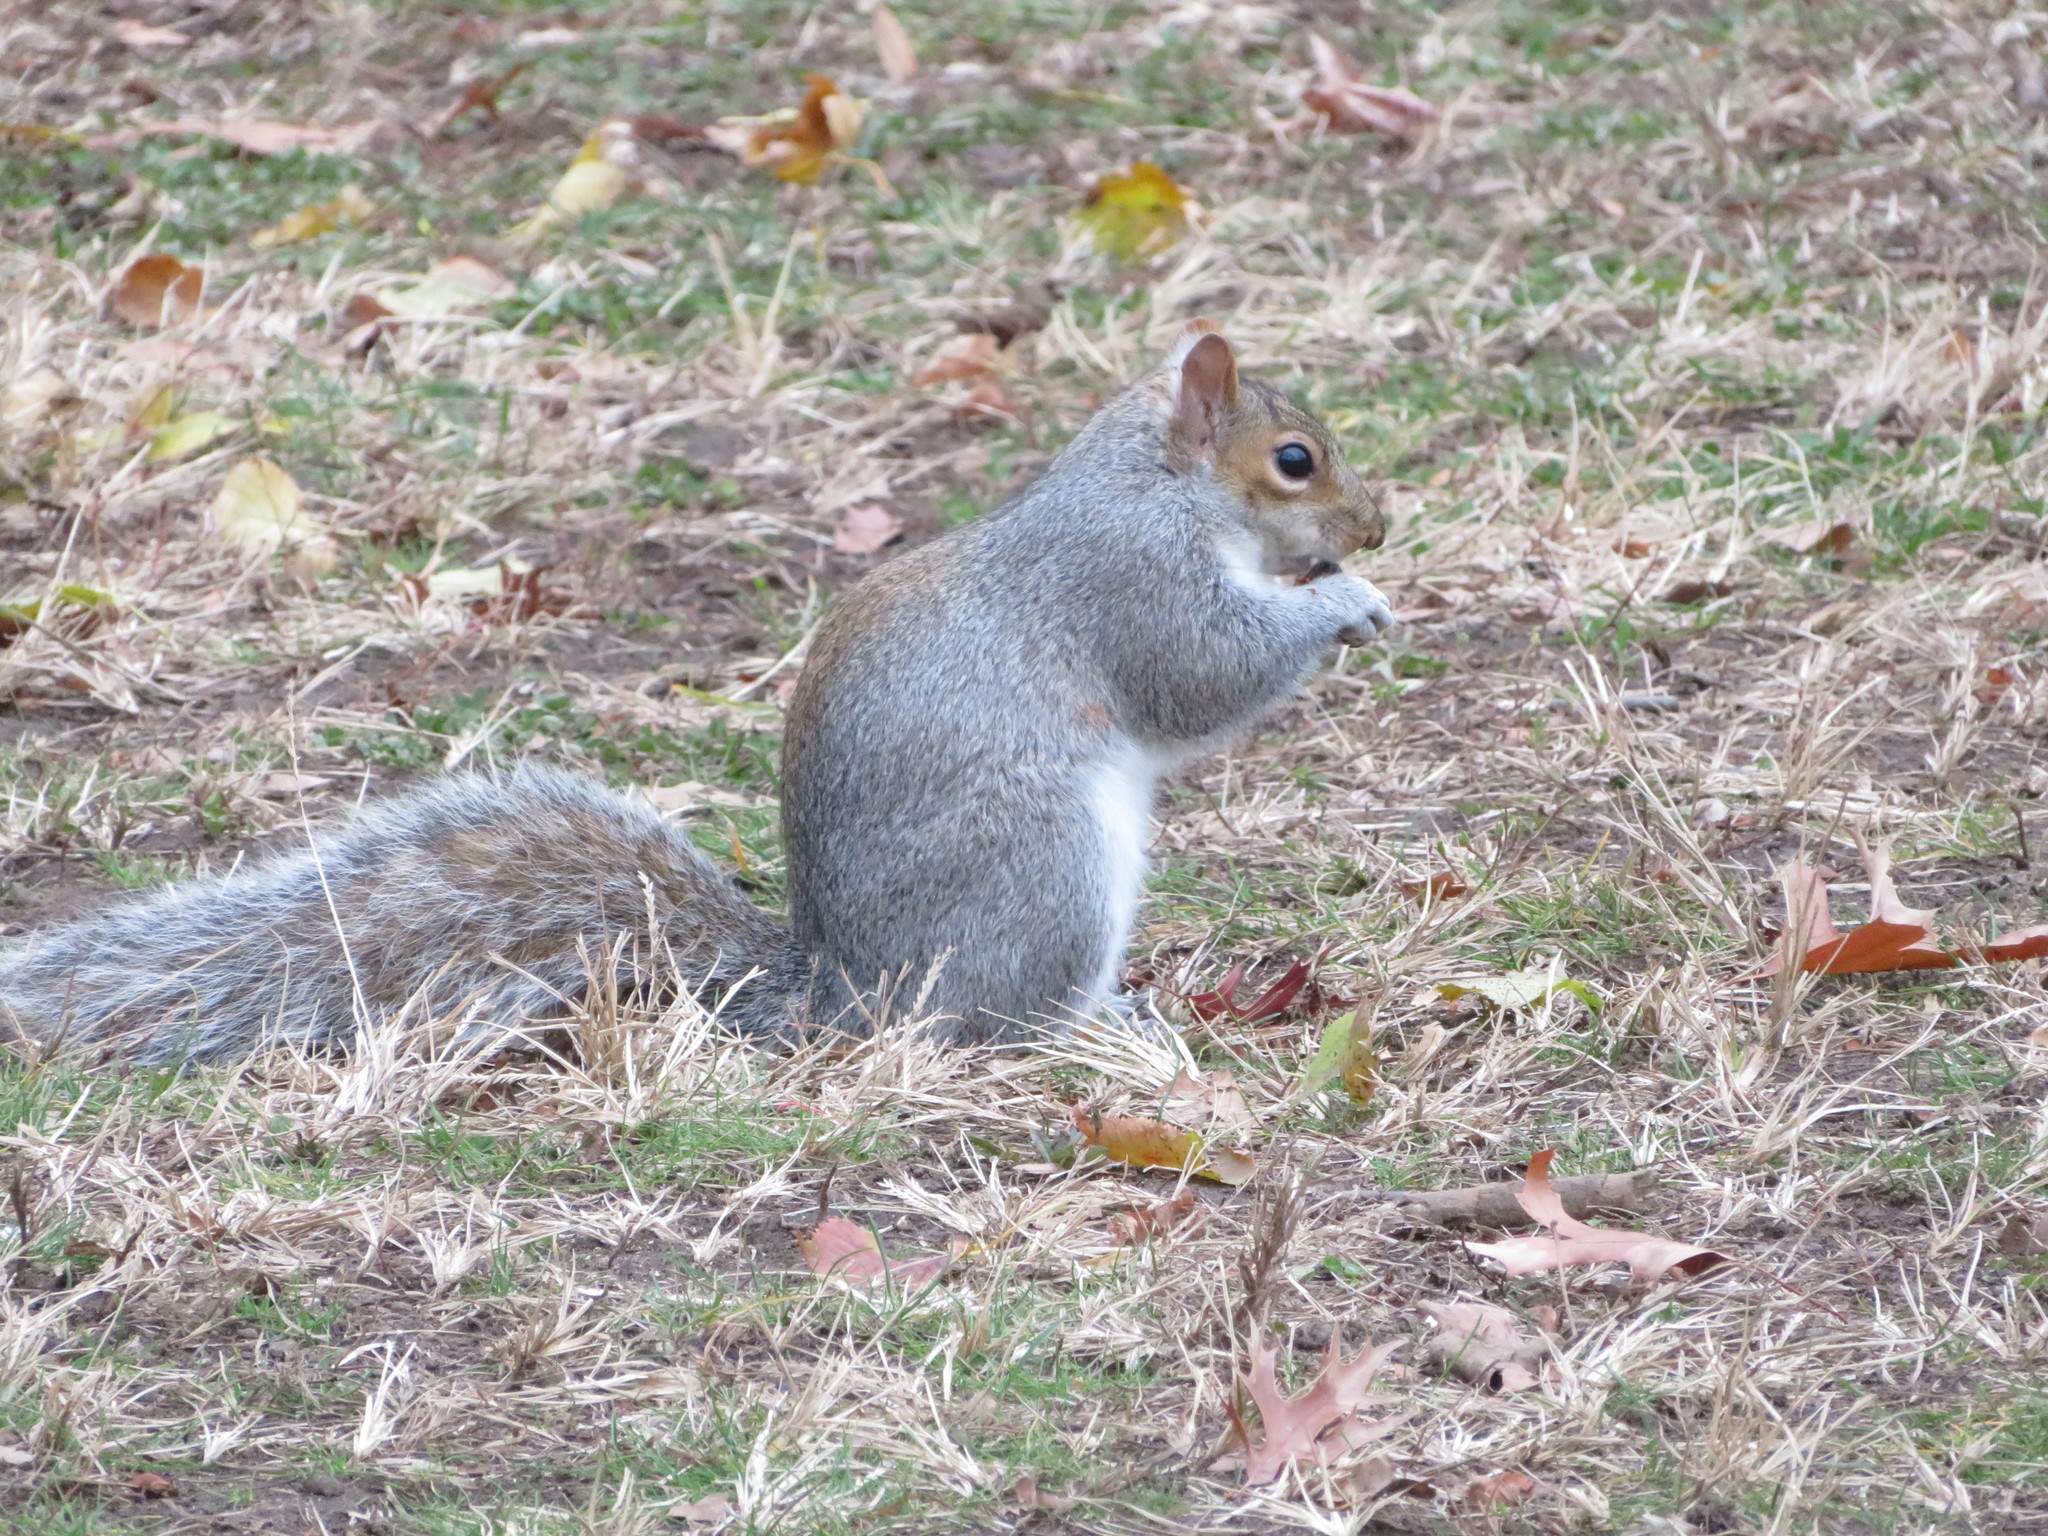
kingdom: Animalia
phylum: Chordata
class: Mammalia
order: Rodentia
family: Sciuridae
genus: Sciurus
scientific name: Sciurus carolinensis
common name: Eastern gray squirrel
